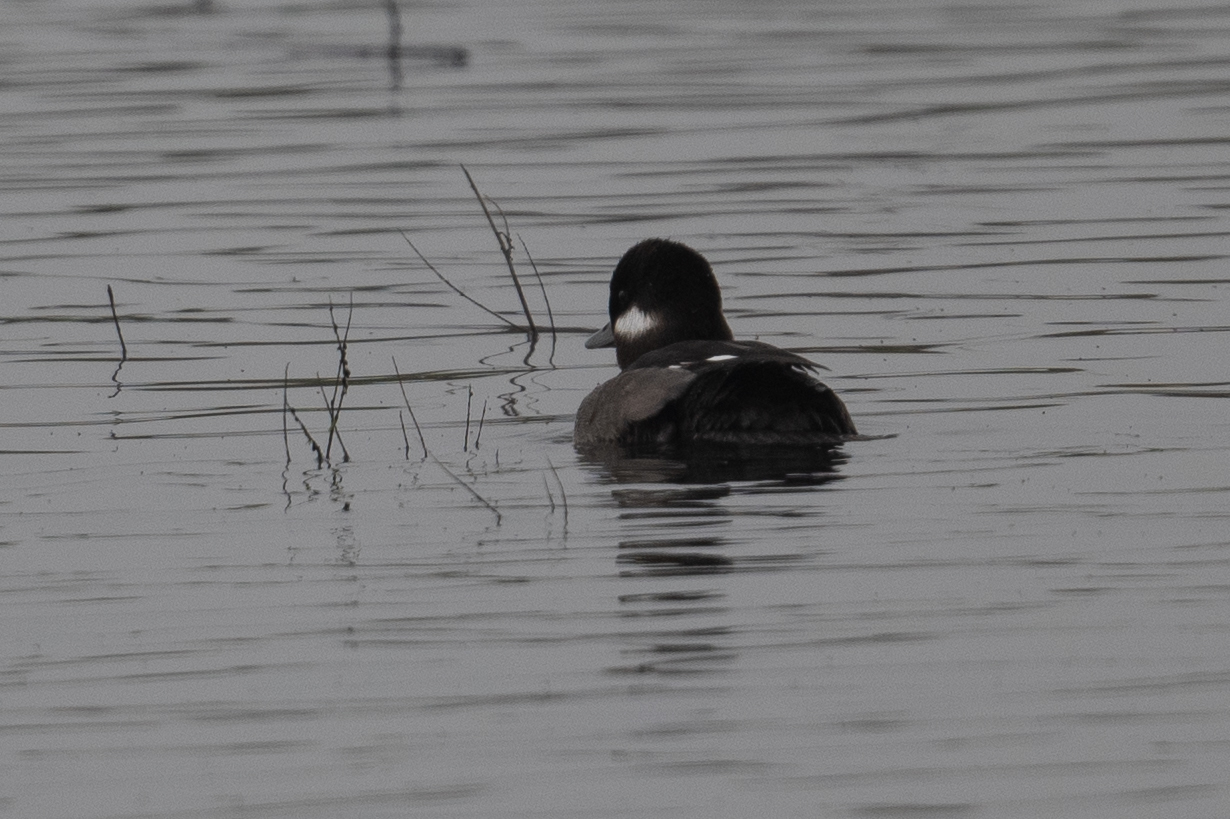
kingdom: Animalia
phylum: Chordata
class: Aves
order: Anseriformes
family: Anatidae
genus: Bucephala
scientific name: Bucephala albeola
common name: Bufflehead
